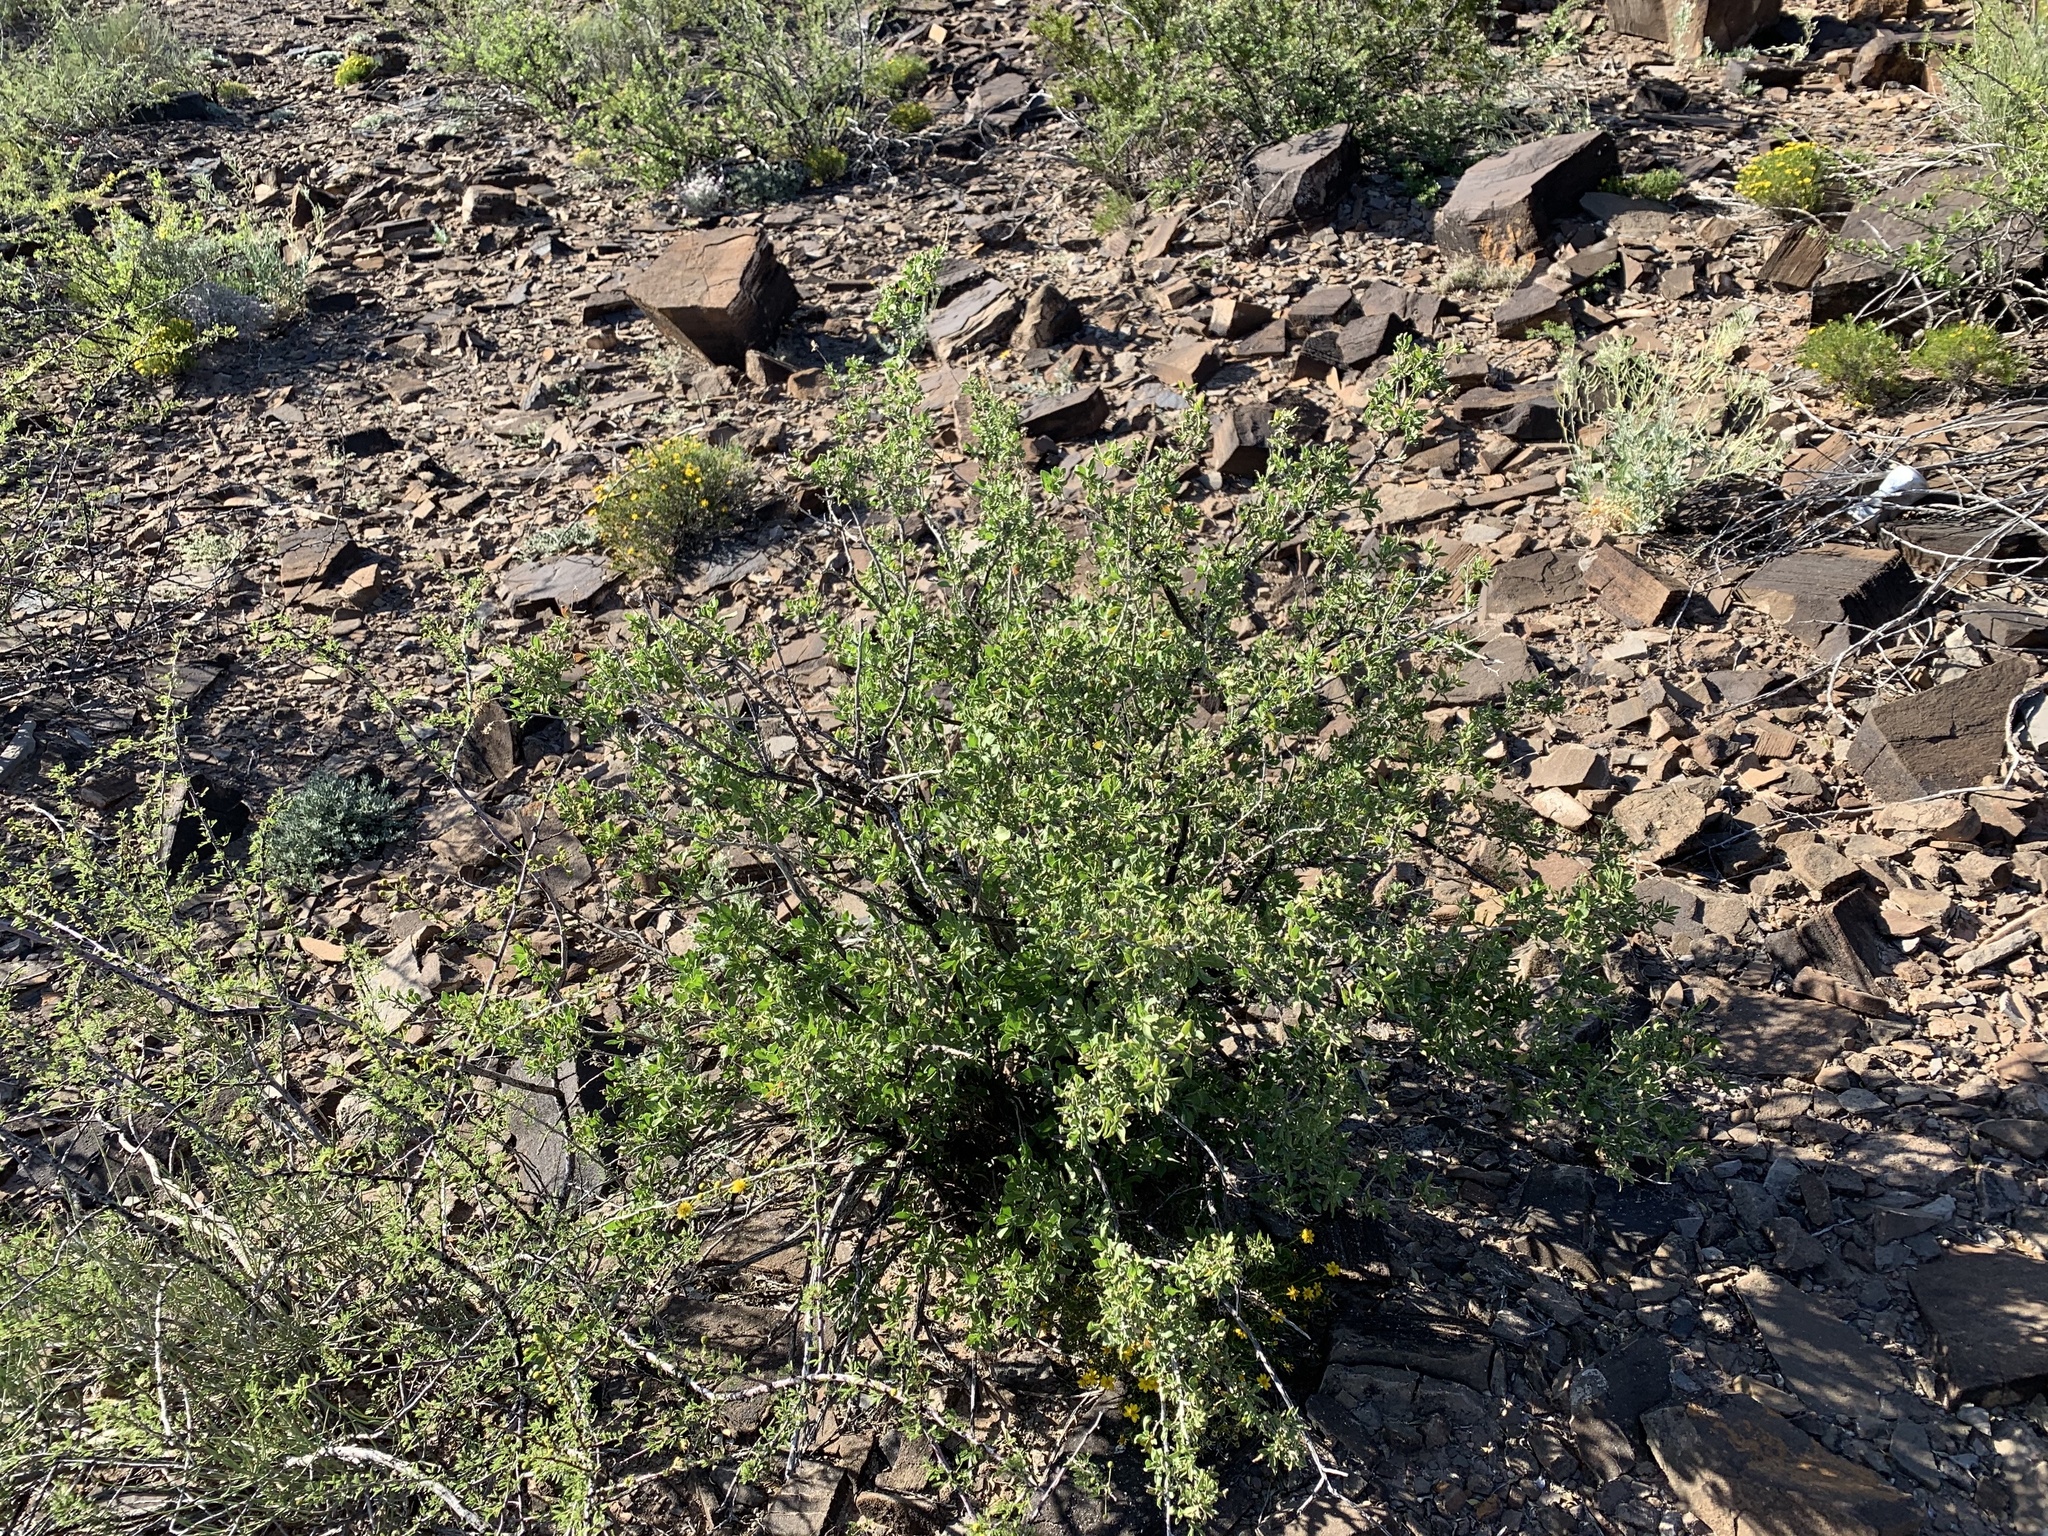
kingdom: Plantae
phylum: Tracheophyta
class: Magnoliopsida
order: Zygophyllales
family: Zygophyllaceae
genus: Larrea
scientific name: Larrea tridentata
